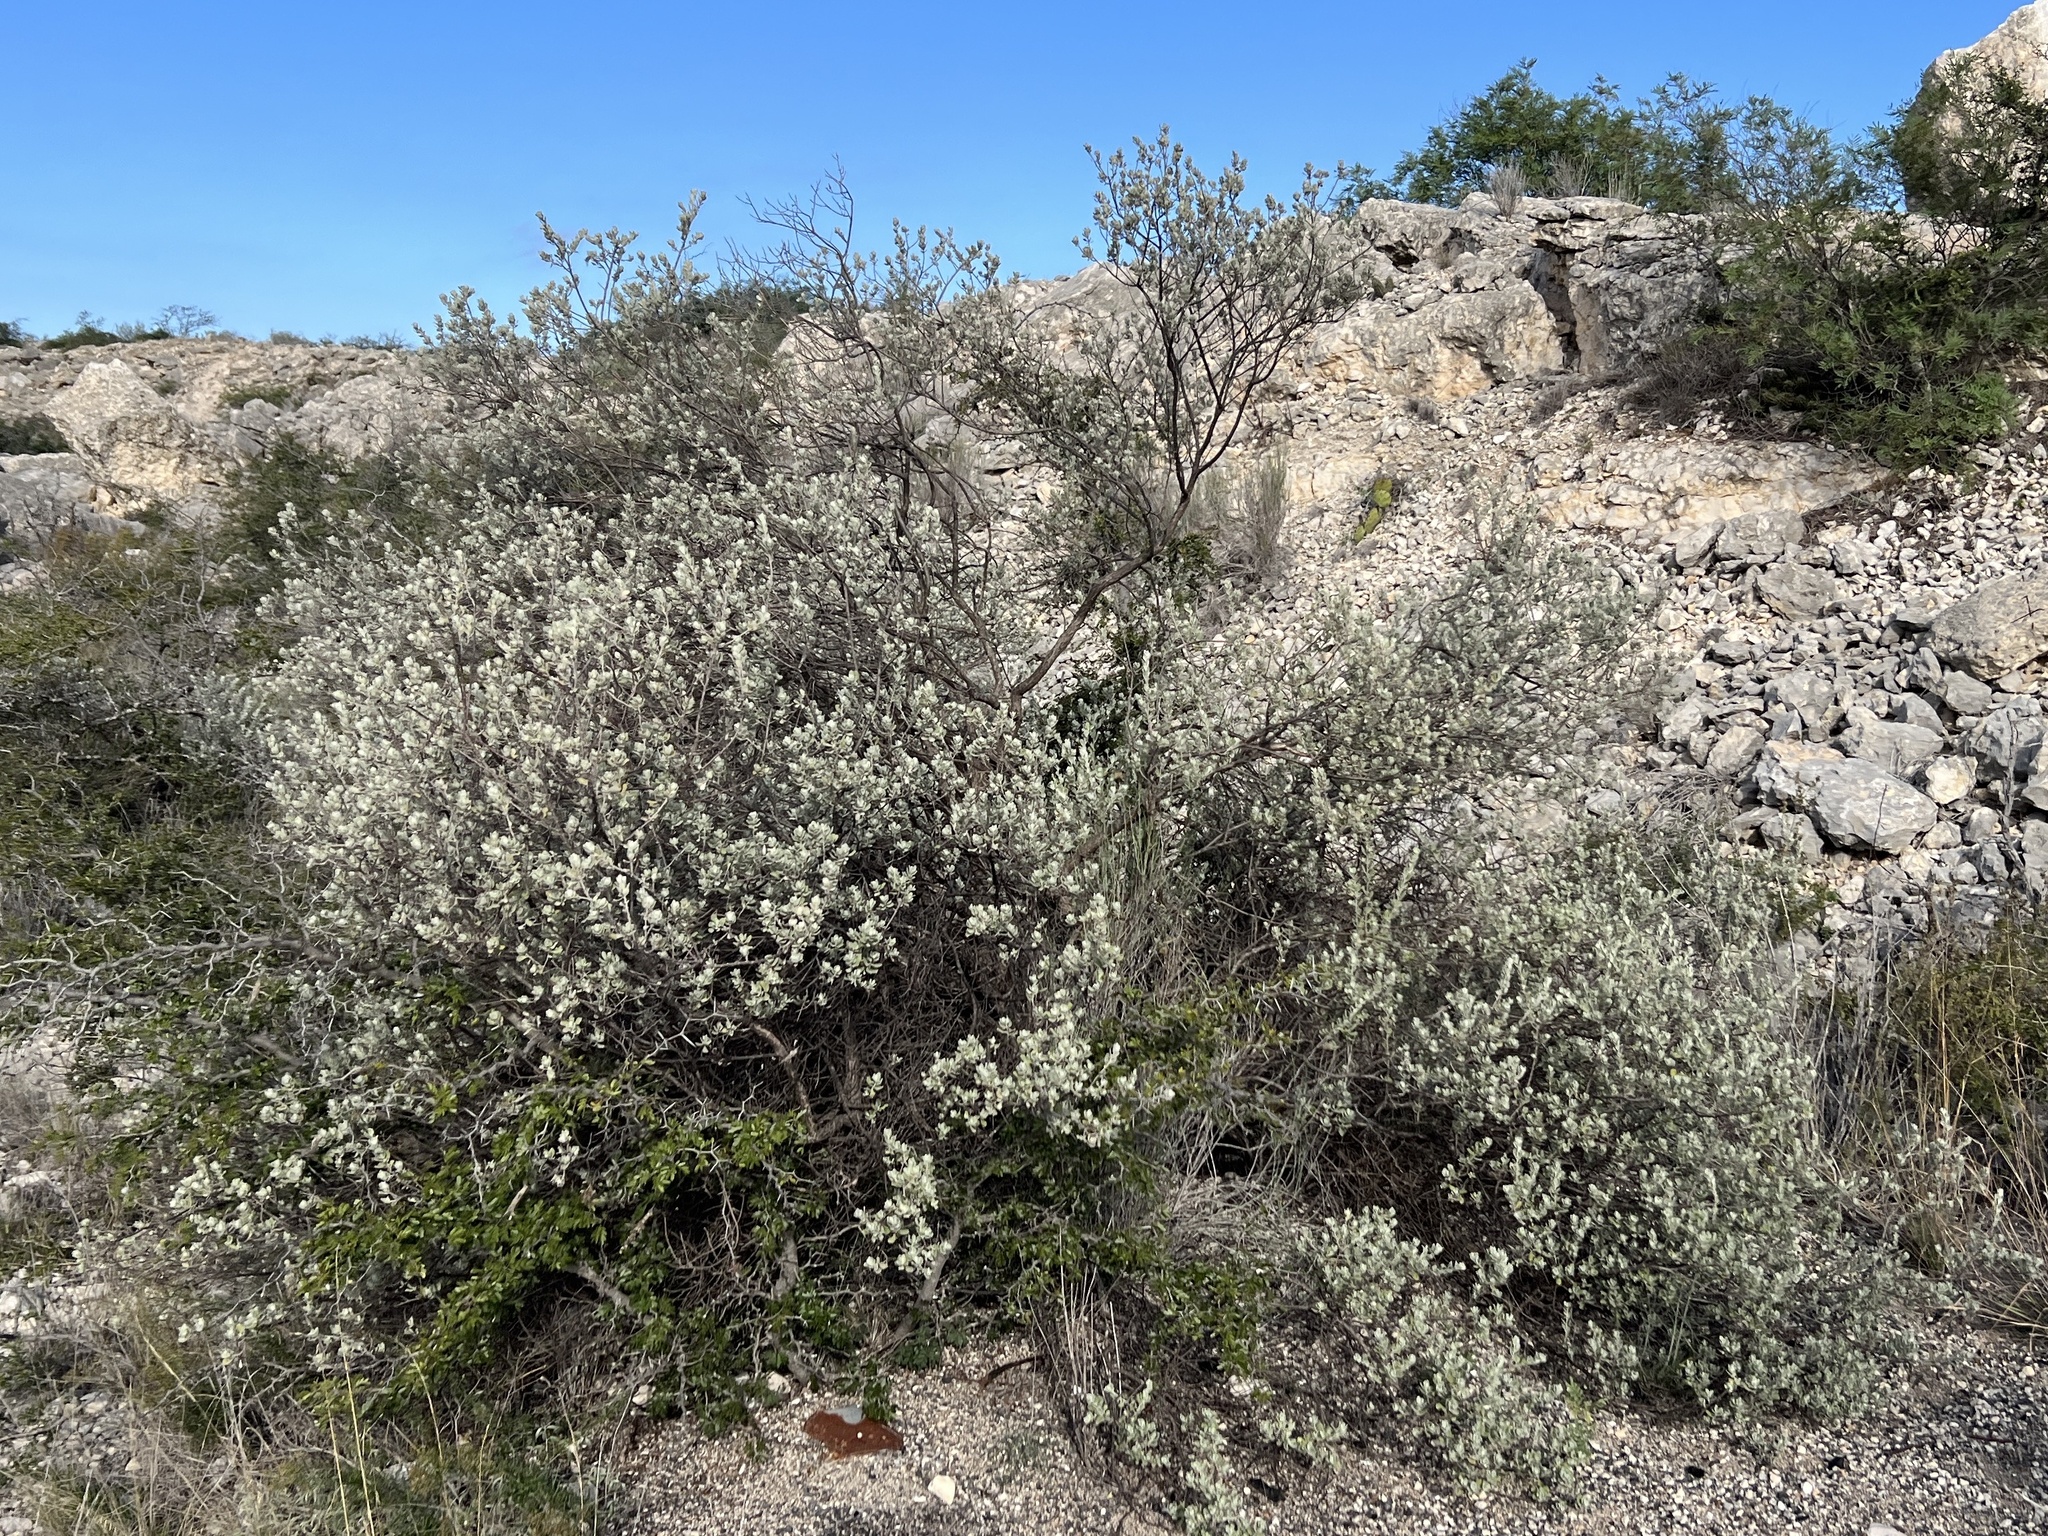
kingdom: Plantae
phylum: Tracheophyta
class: Magnoliopsida
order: Lamiales
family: Scrophulariaceae
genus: Leucophyllum
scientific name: Leucophyllum frutescens
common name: Texas silverleaf
